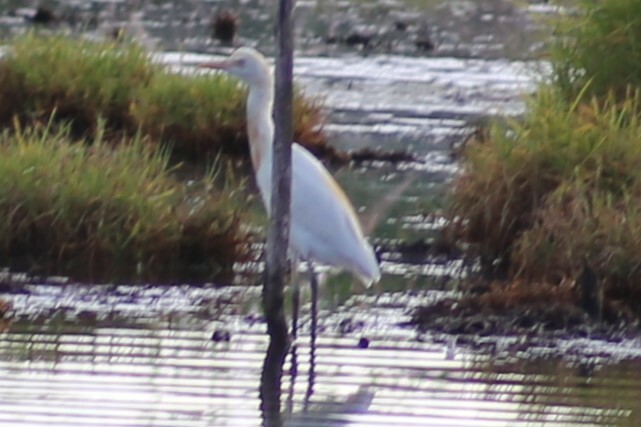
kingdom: Animalia
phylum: Chordata
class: Aves
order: Pelecaniformes
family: Ardeidae
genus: Bubulcus
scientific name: Bubulcus coromandus
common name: Eastern cattle egret
